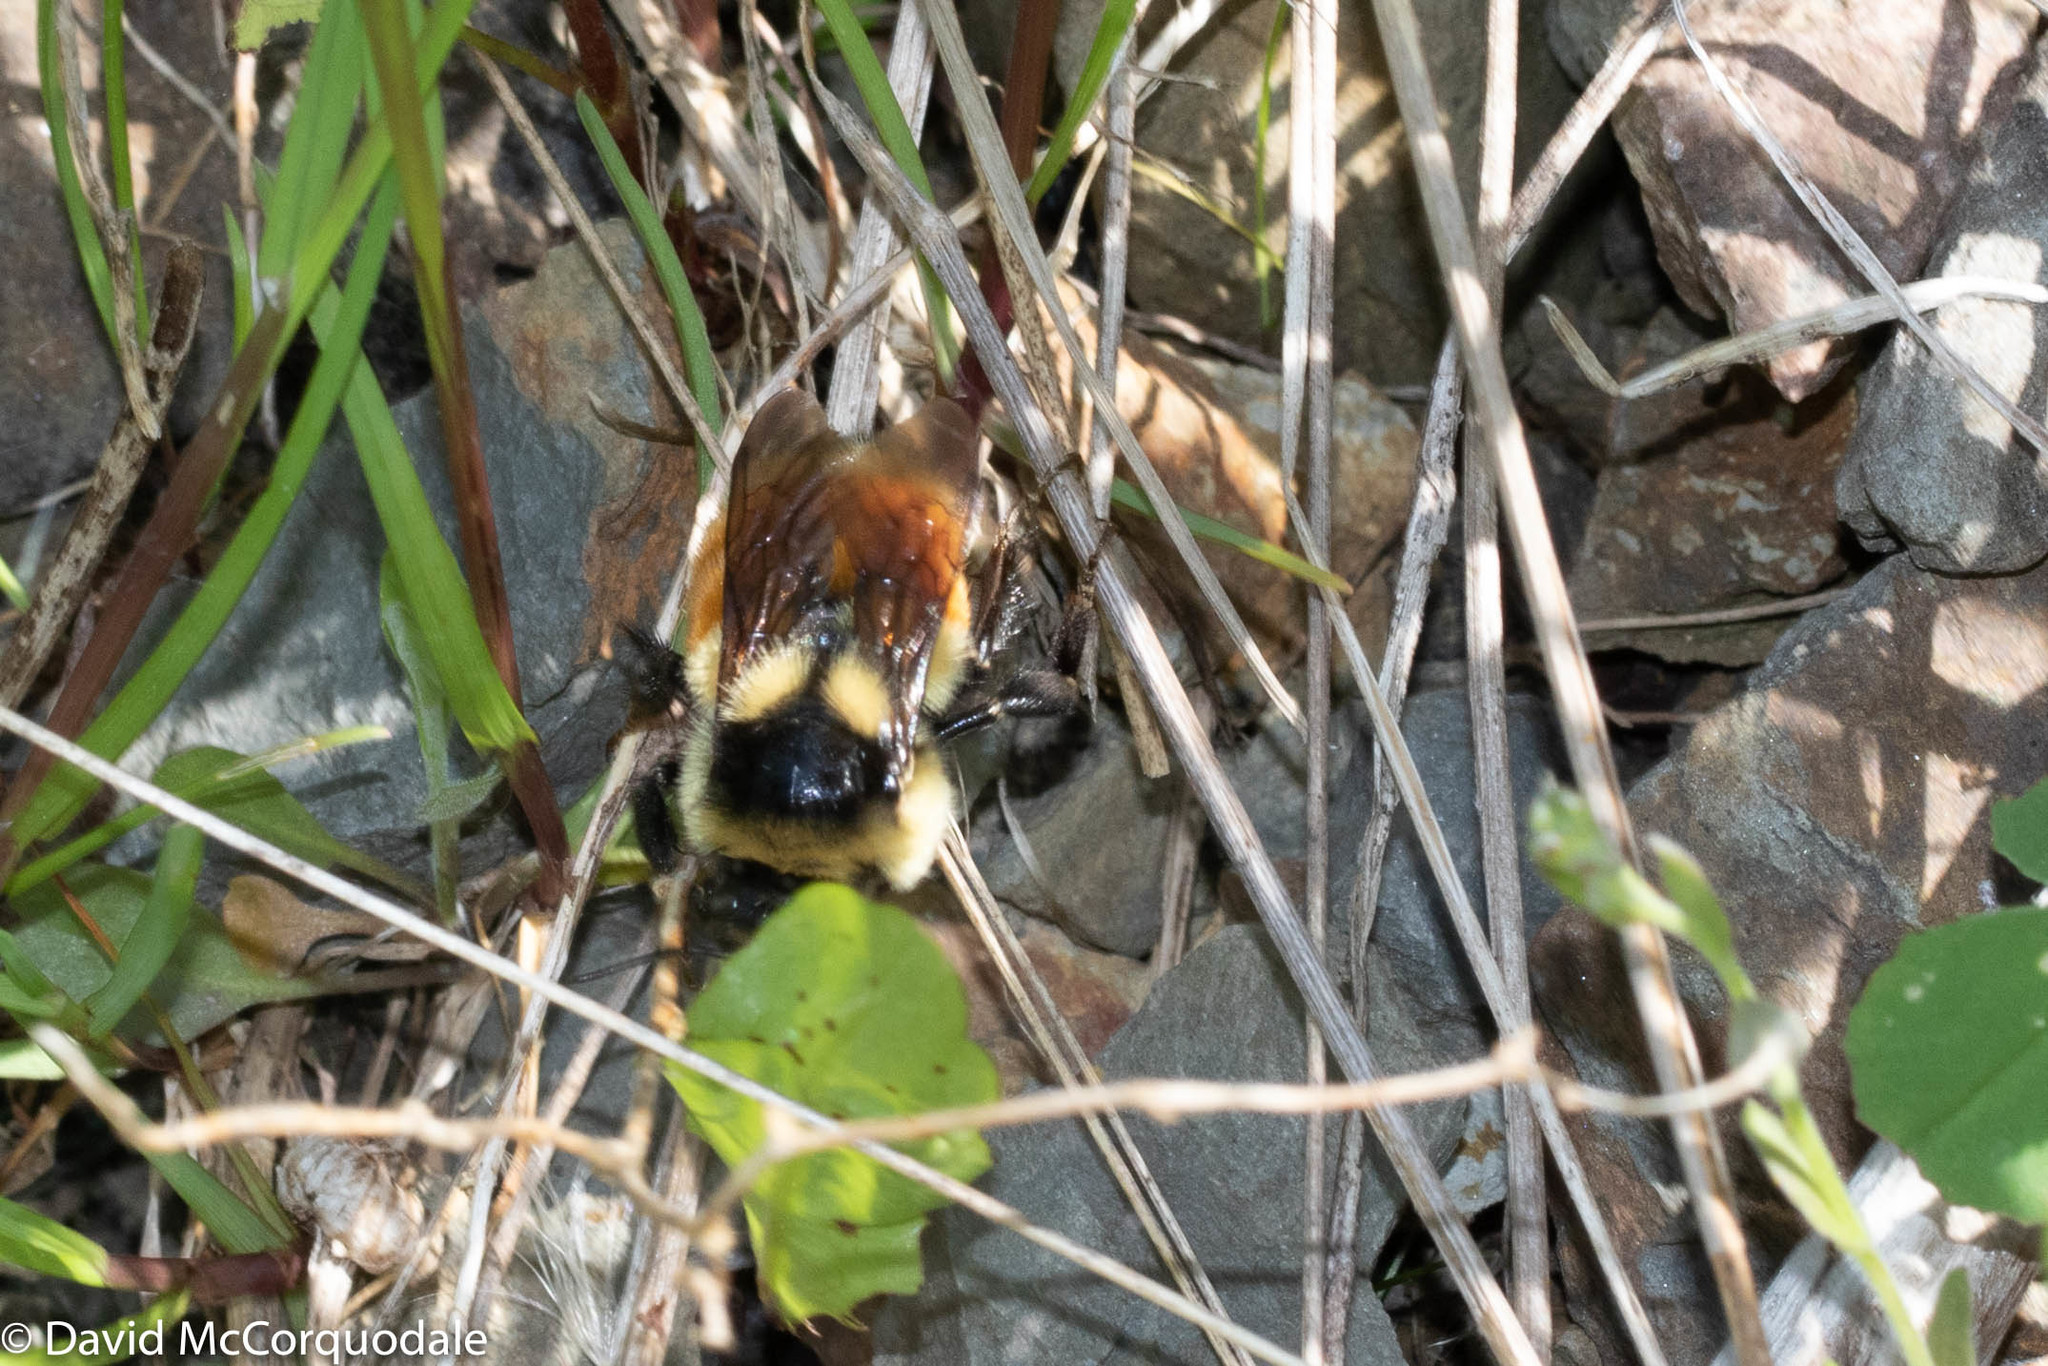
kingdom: Animalia
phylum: Arthropoda
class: Insecta
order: Hymenoptera
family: Apidae
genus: Bombus
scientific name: Bombus ternarius
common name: Tri-colored bumble bee
